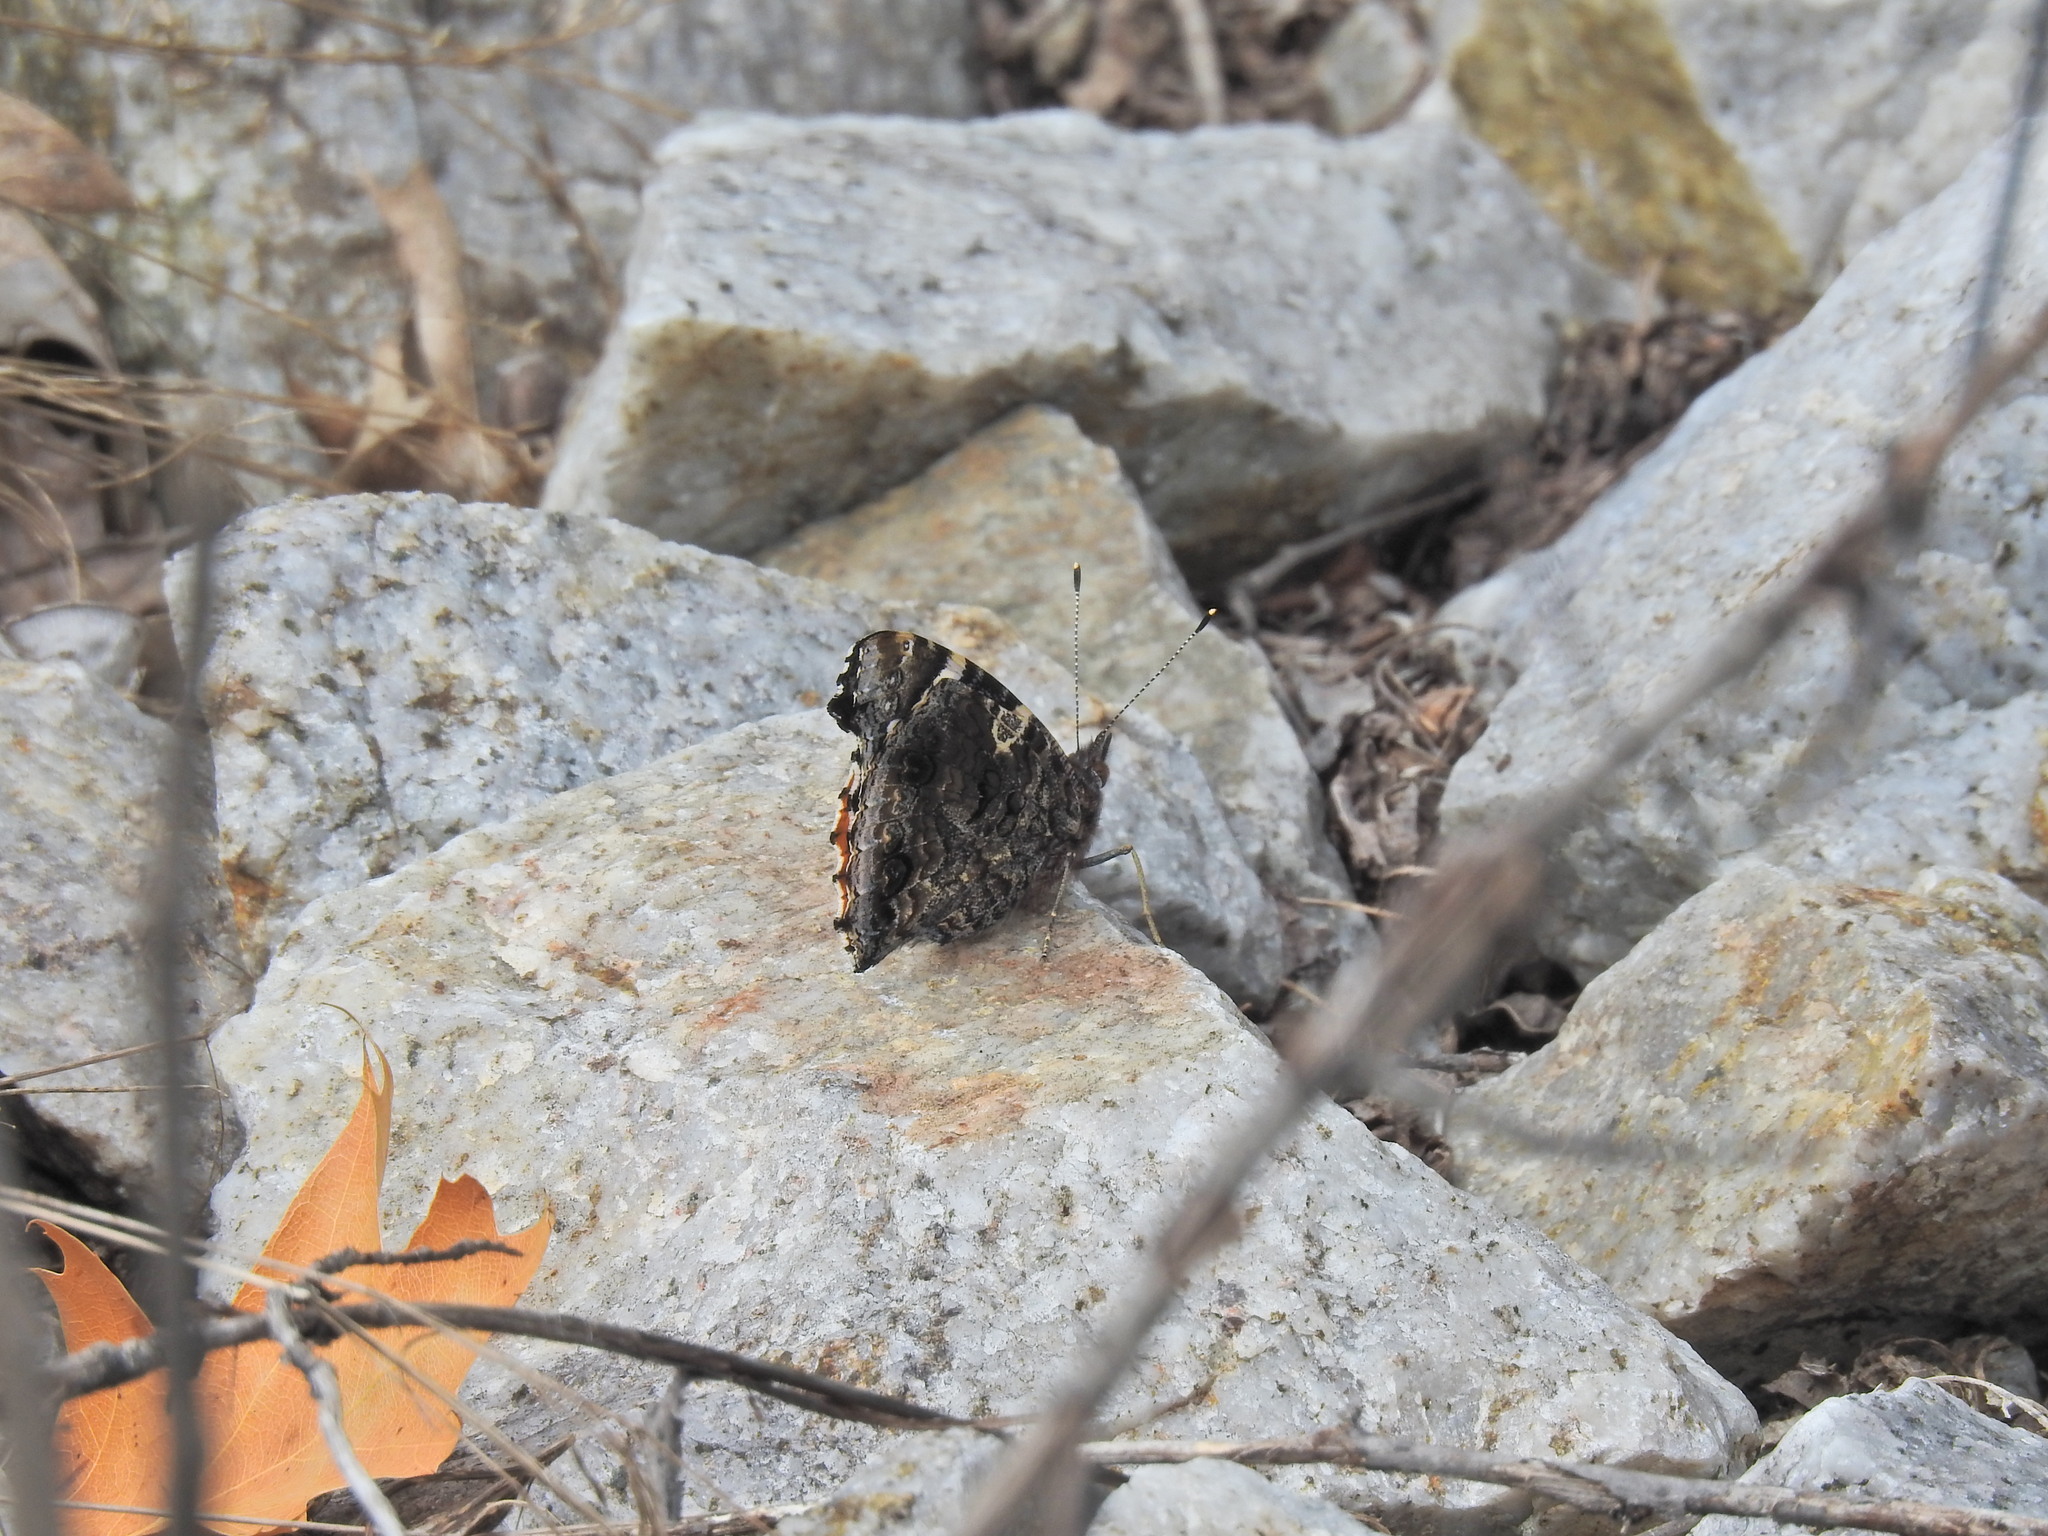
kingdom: Animalia
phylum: Arthropoda
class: Insecta
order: Lepidoptera
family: Nymphalidae
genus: Vanessa
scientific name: Vanessa atalanta
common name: Red admiral
